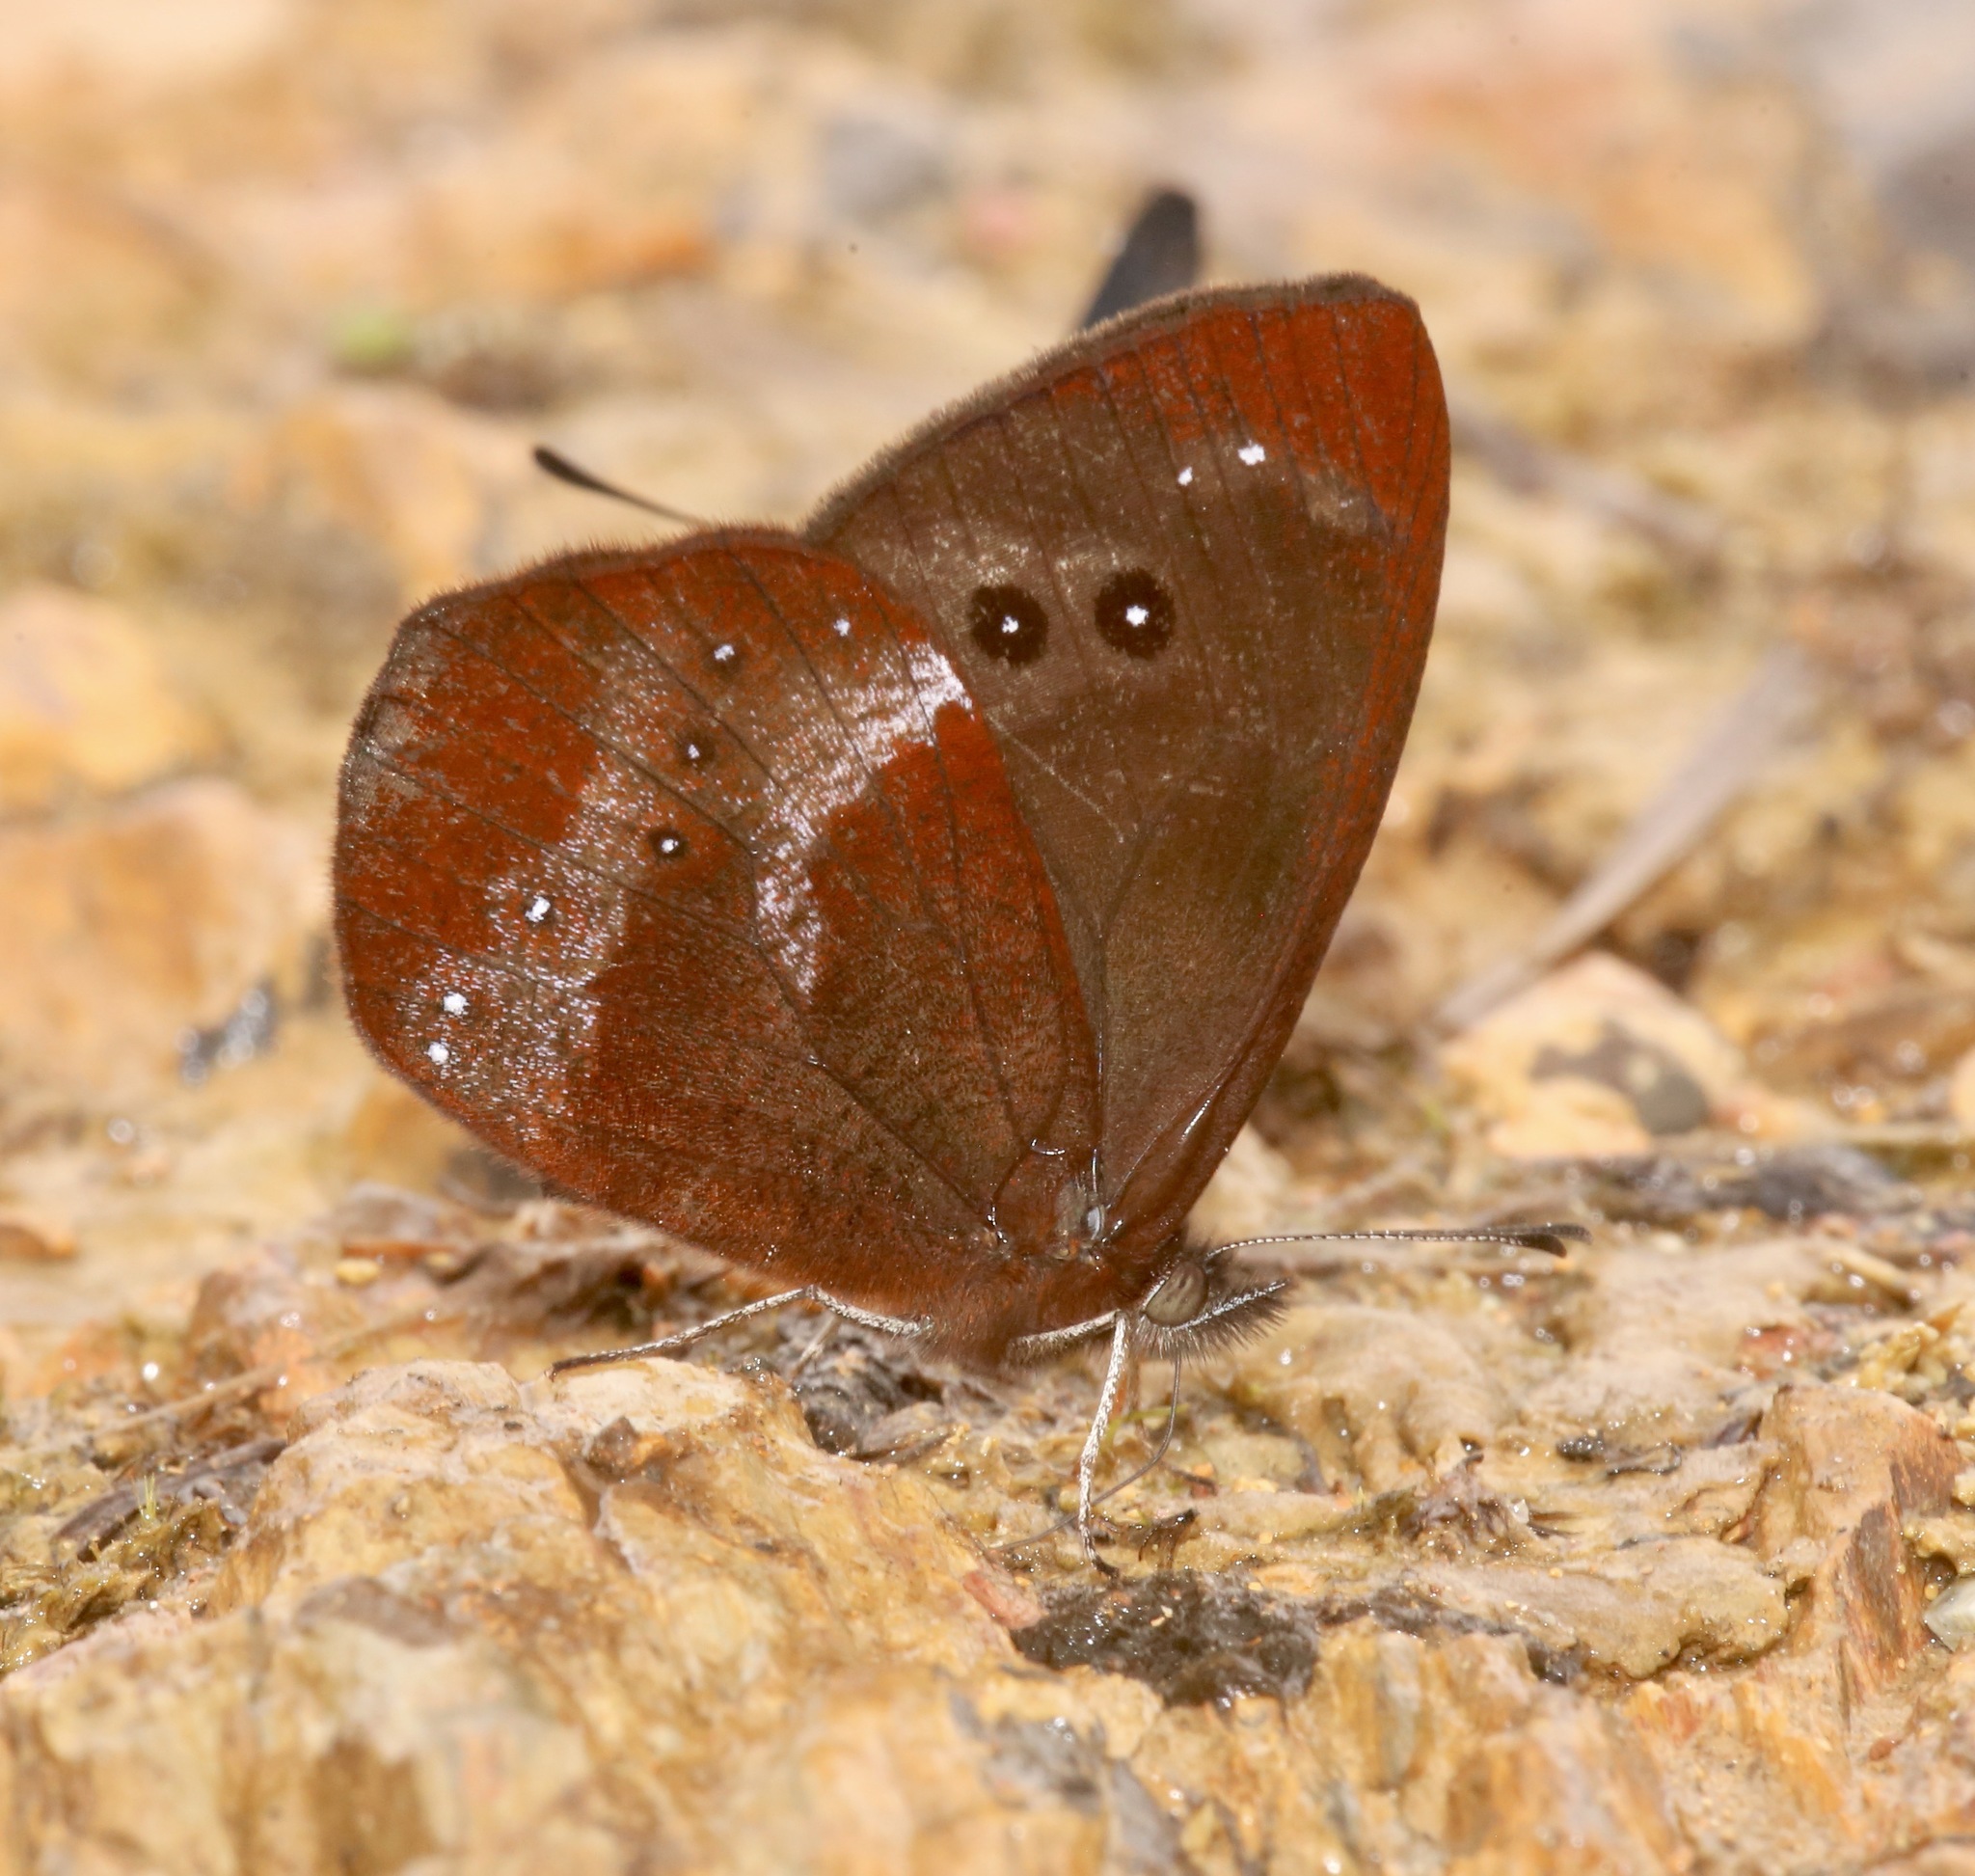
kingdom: Animalia
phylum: Arthropoda
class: Insecta
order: Lepidoptera
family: Nymphalidae
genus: Lymanopoda
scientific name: Lymanopoda obsoleta
